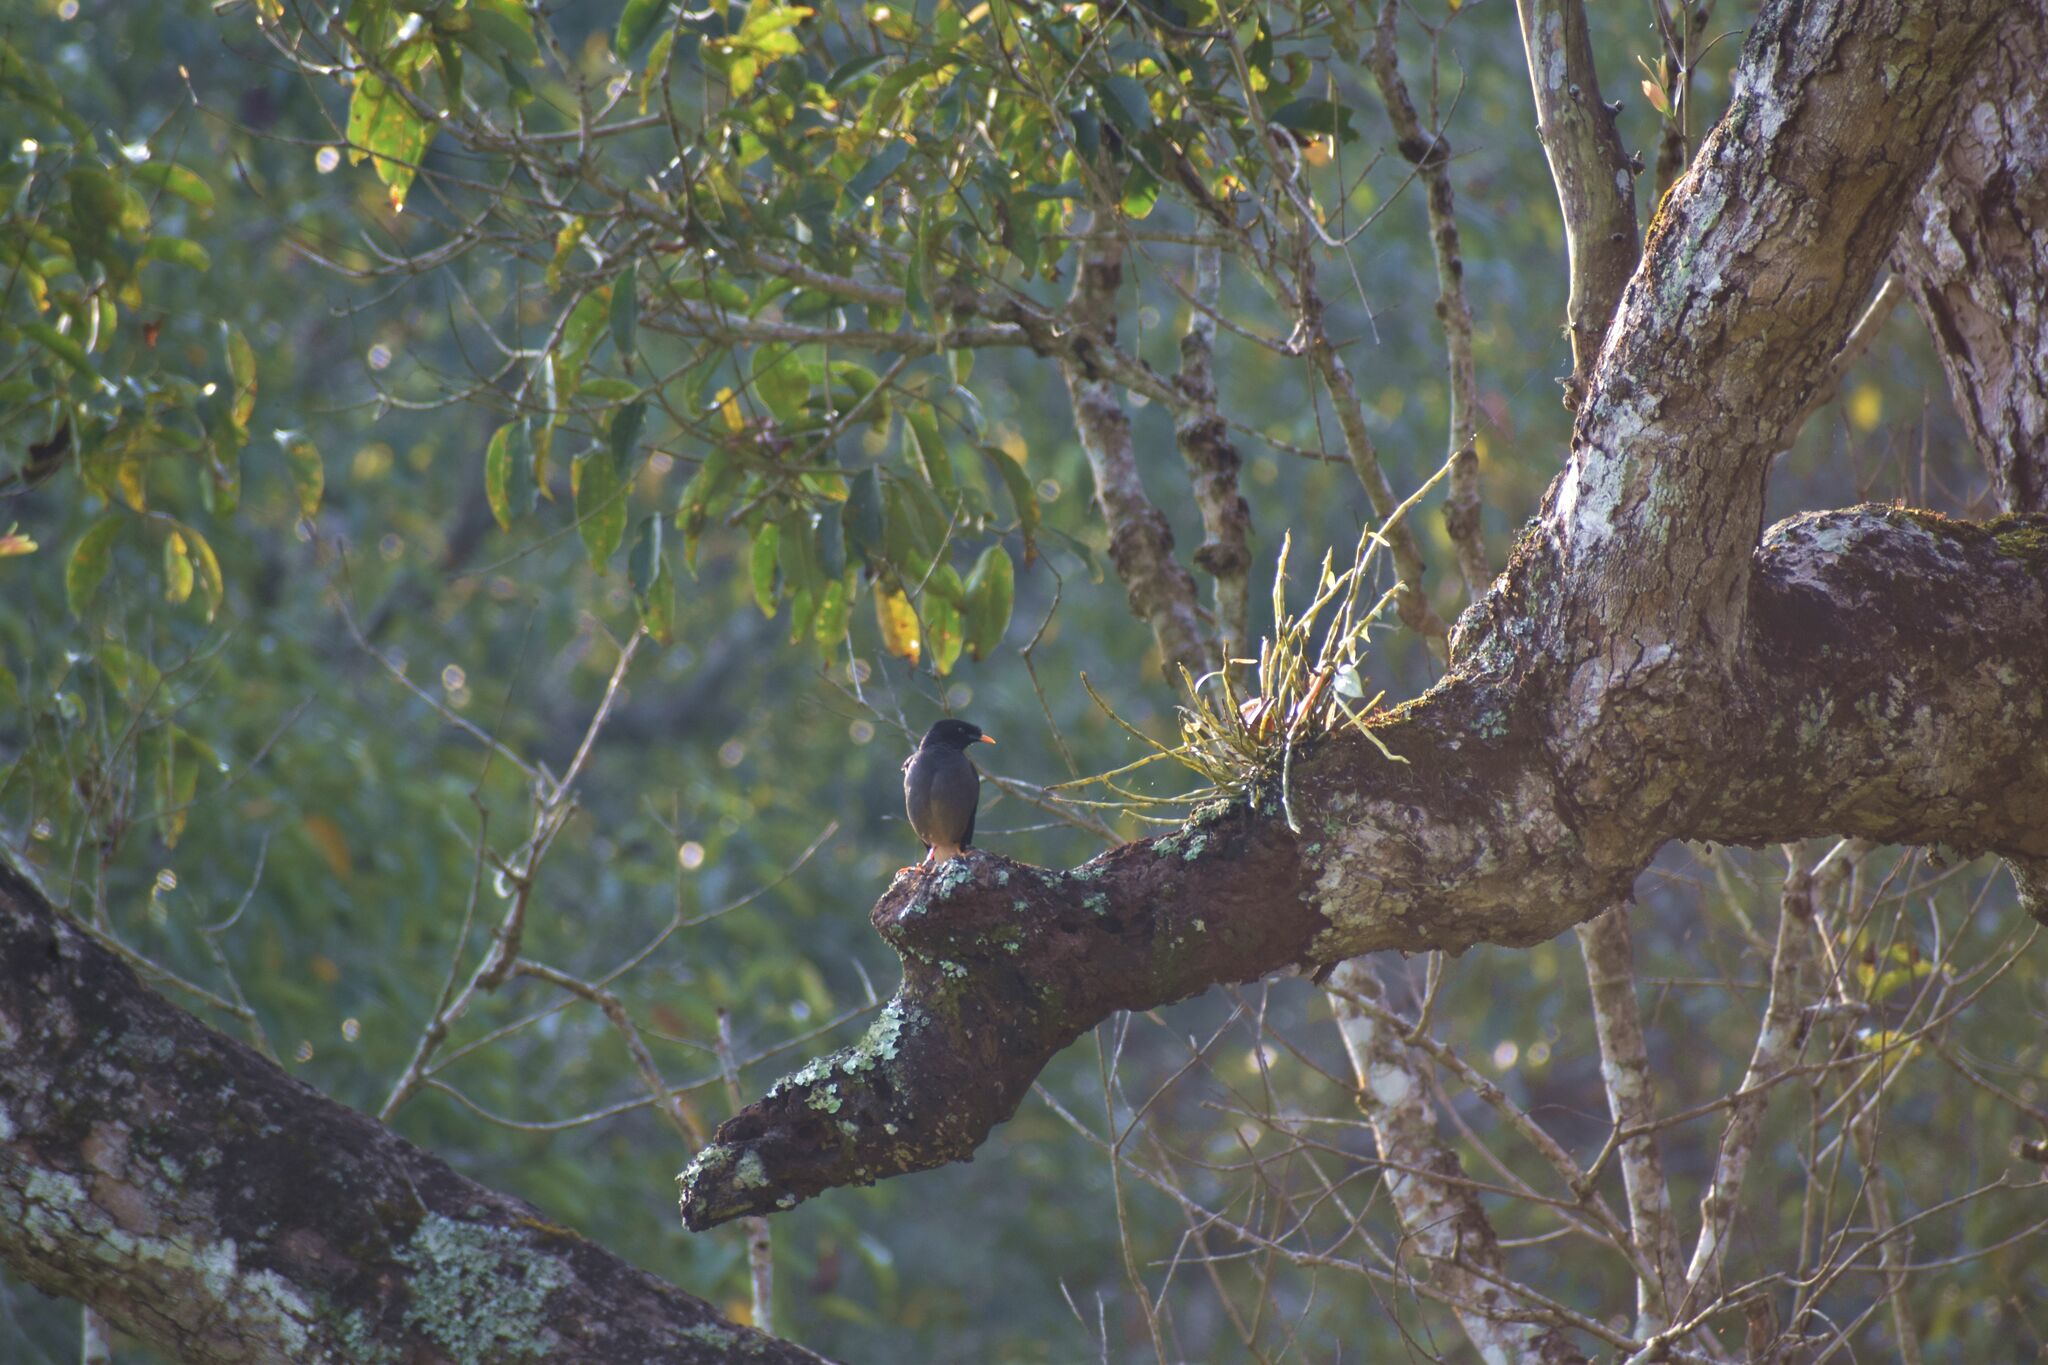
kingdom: Animalia
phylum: Chordata
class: Aves
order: Passeriformes
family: Sturnidae
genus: Acridotheres
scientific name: Acridotheres fuscus
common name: Jungle myna
